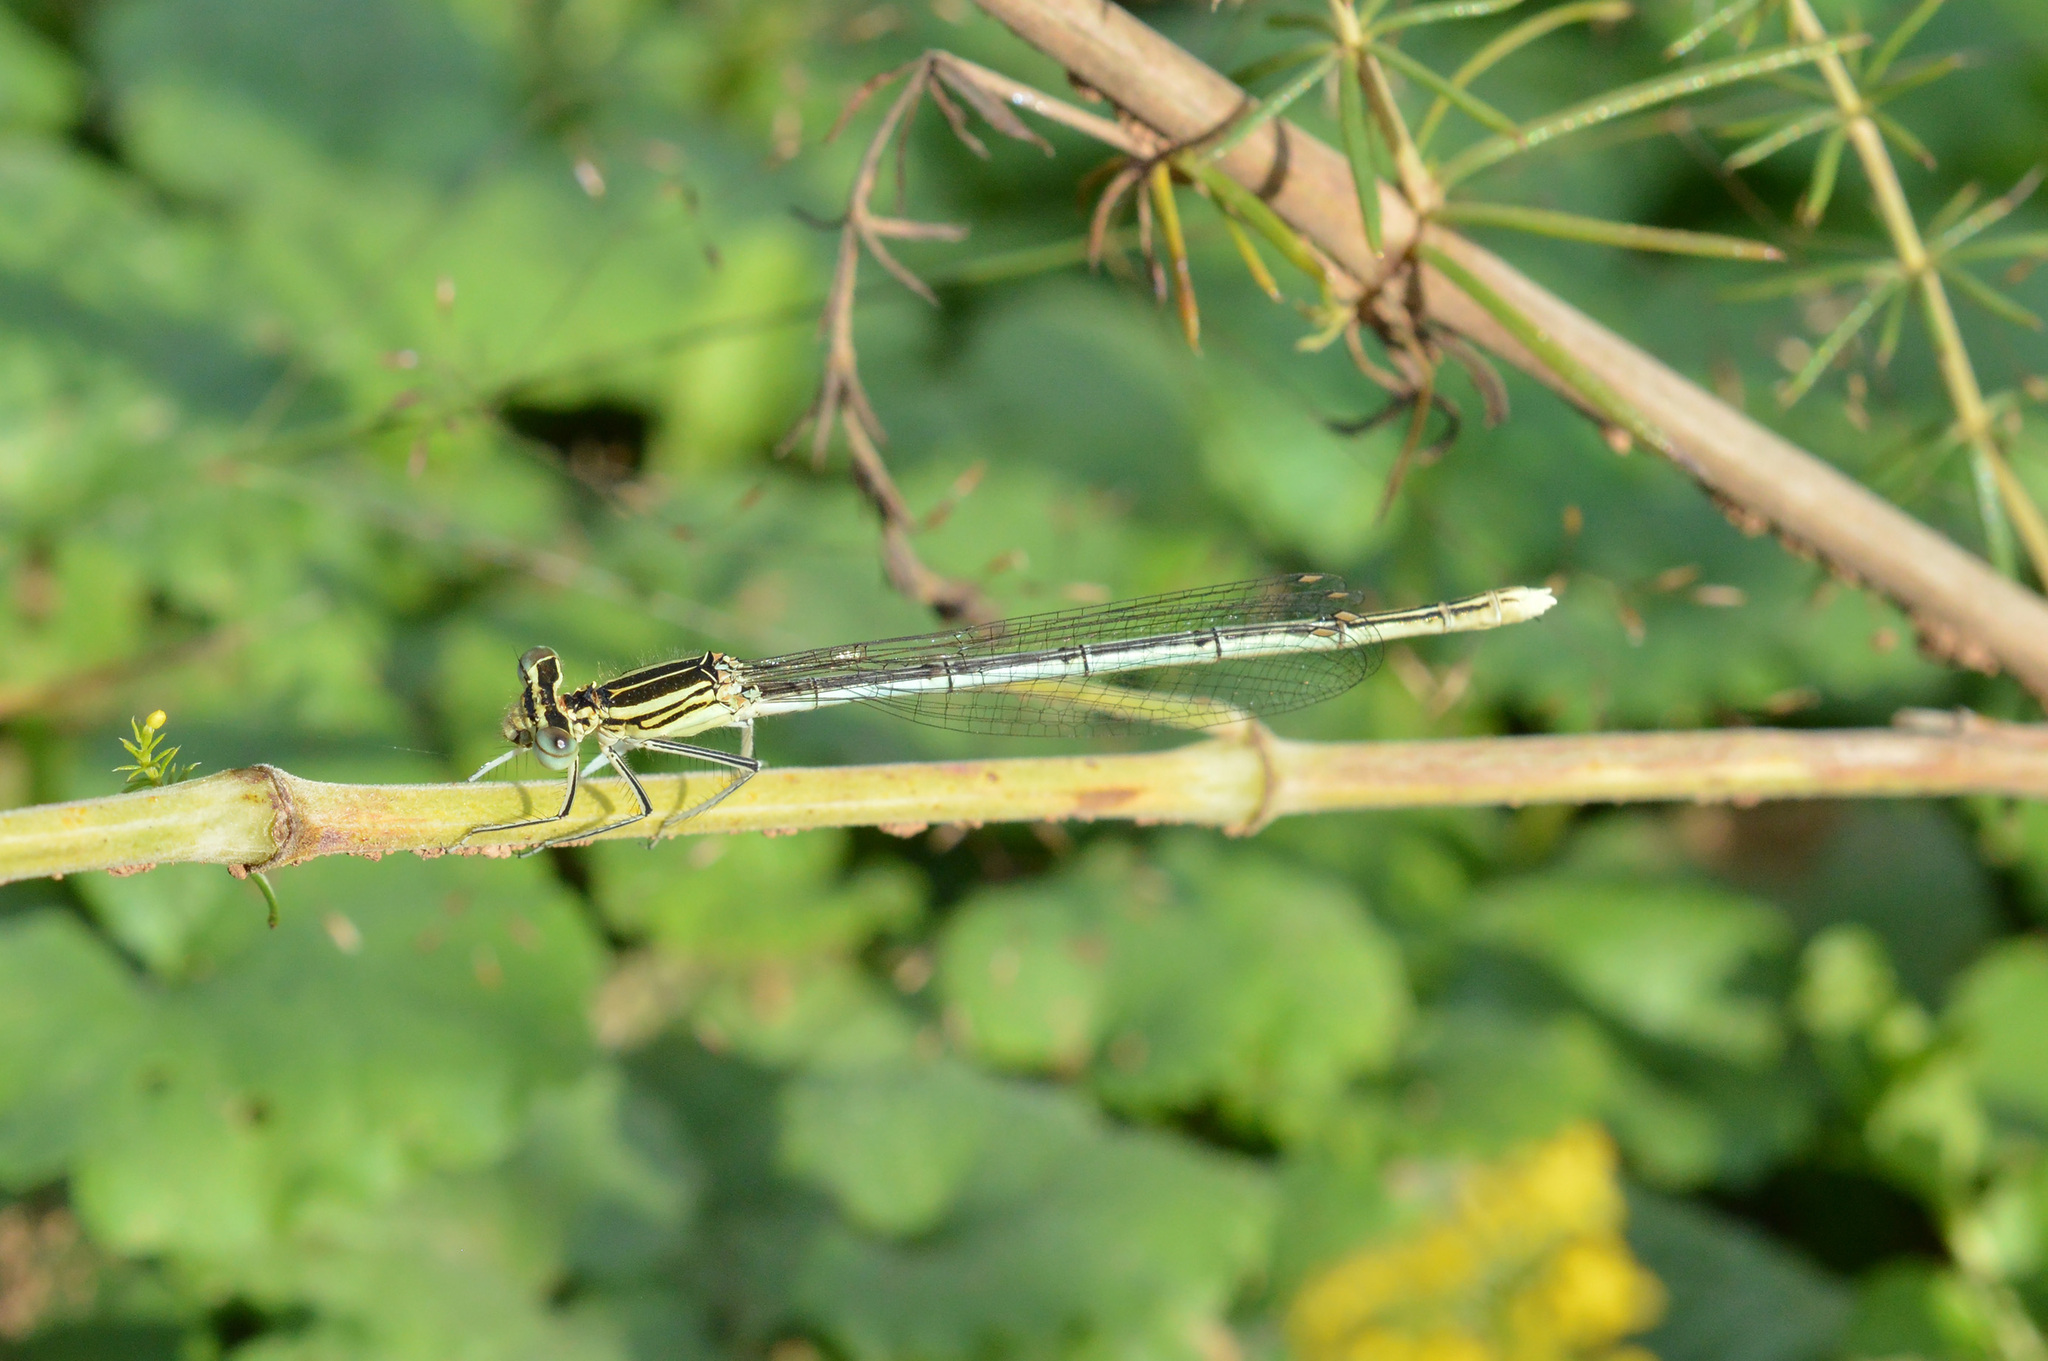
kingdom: Animalia
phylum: Arthropoda
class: Insecta
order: Odonata
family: Platycnemididae
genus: Platycnemis
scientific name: Platycnemis pennipes
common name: White-legged damselfly
